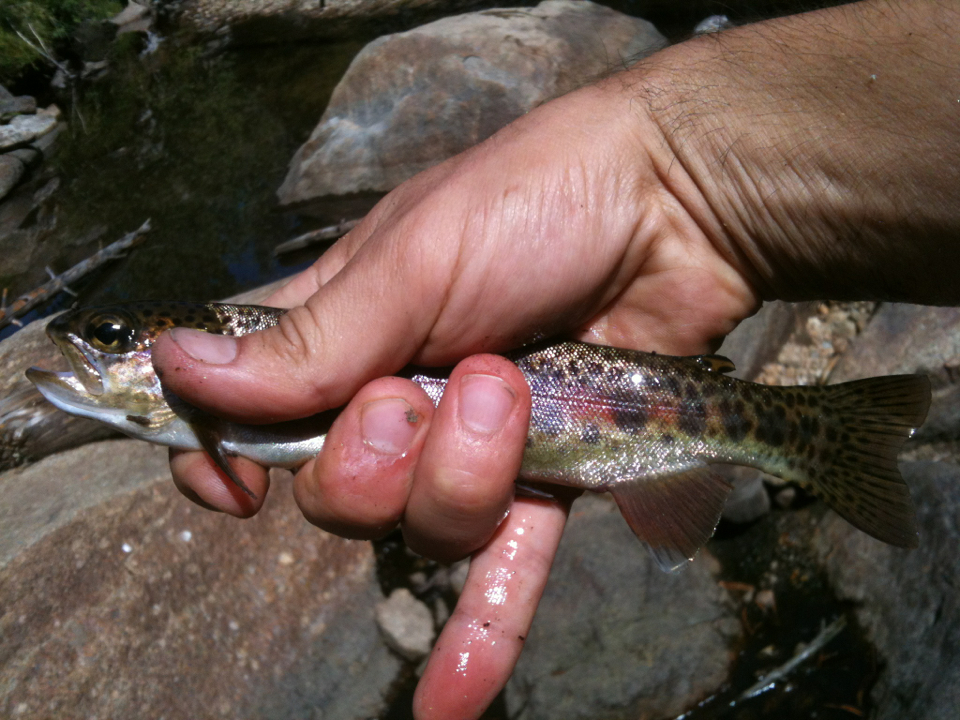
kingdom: Animalia
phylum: Chordata
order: Salmoniformes
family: Salmonidae
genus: Oncorhynchus
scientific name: Oncorhynchus mykiss
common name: Rainbow trout
